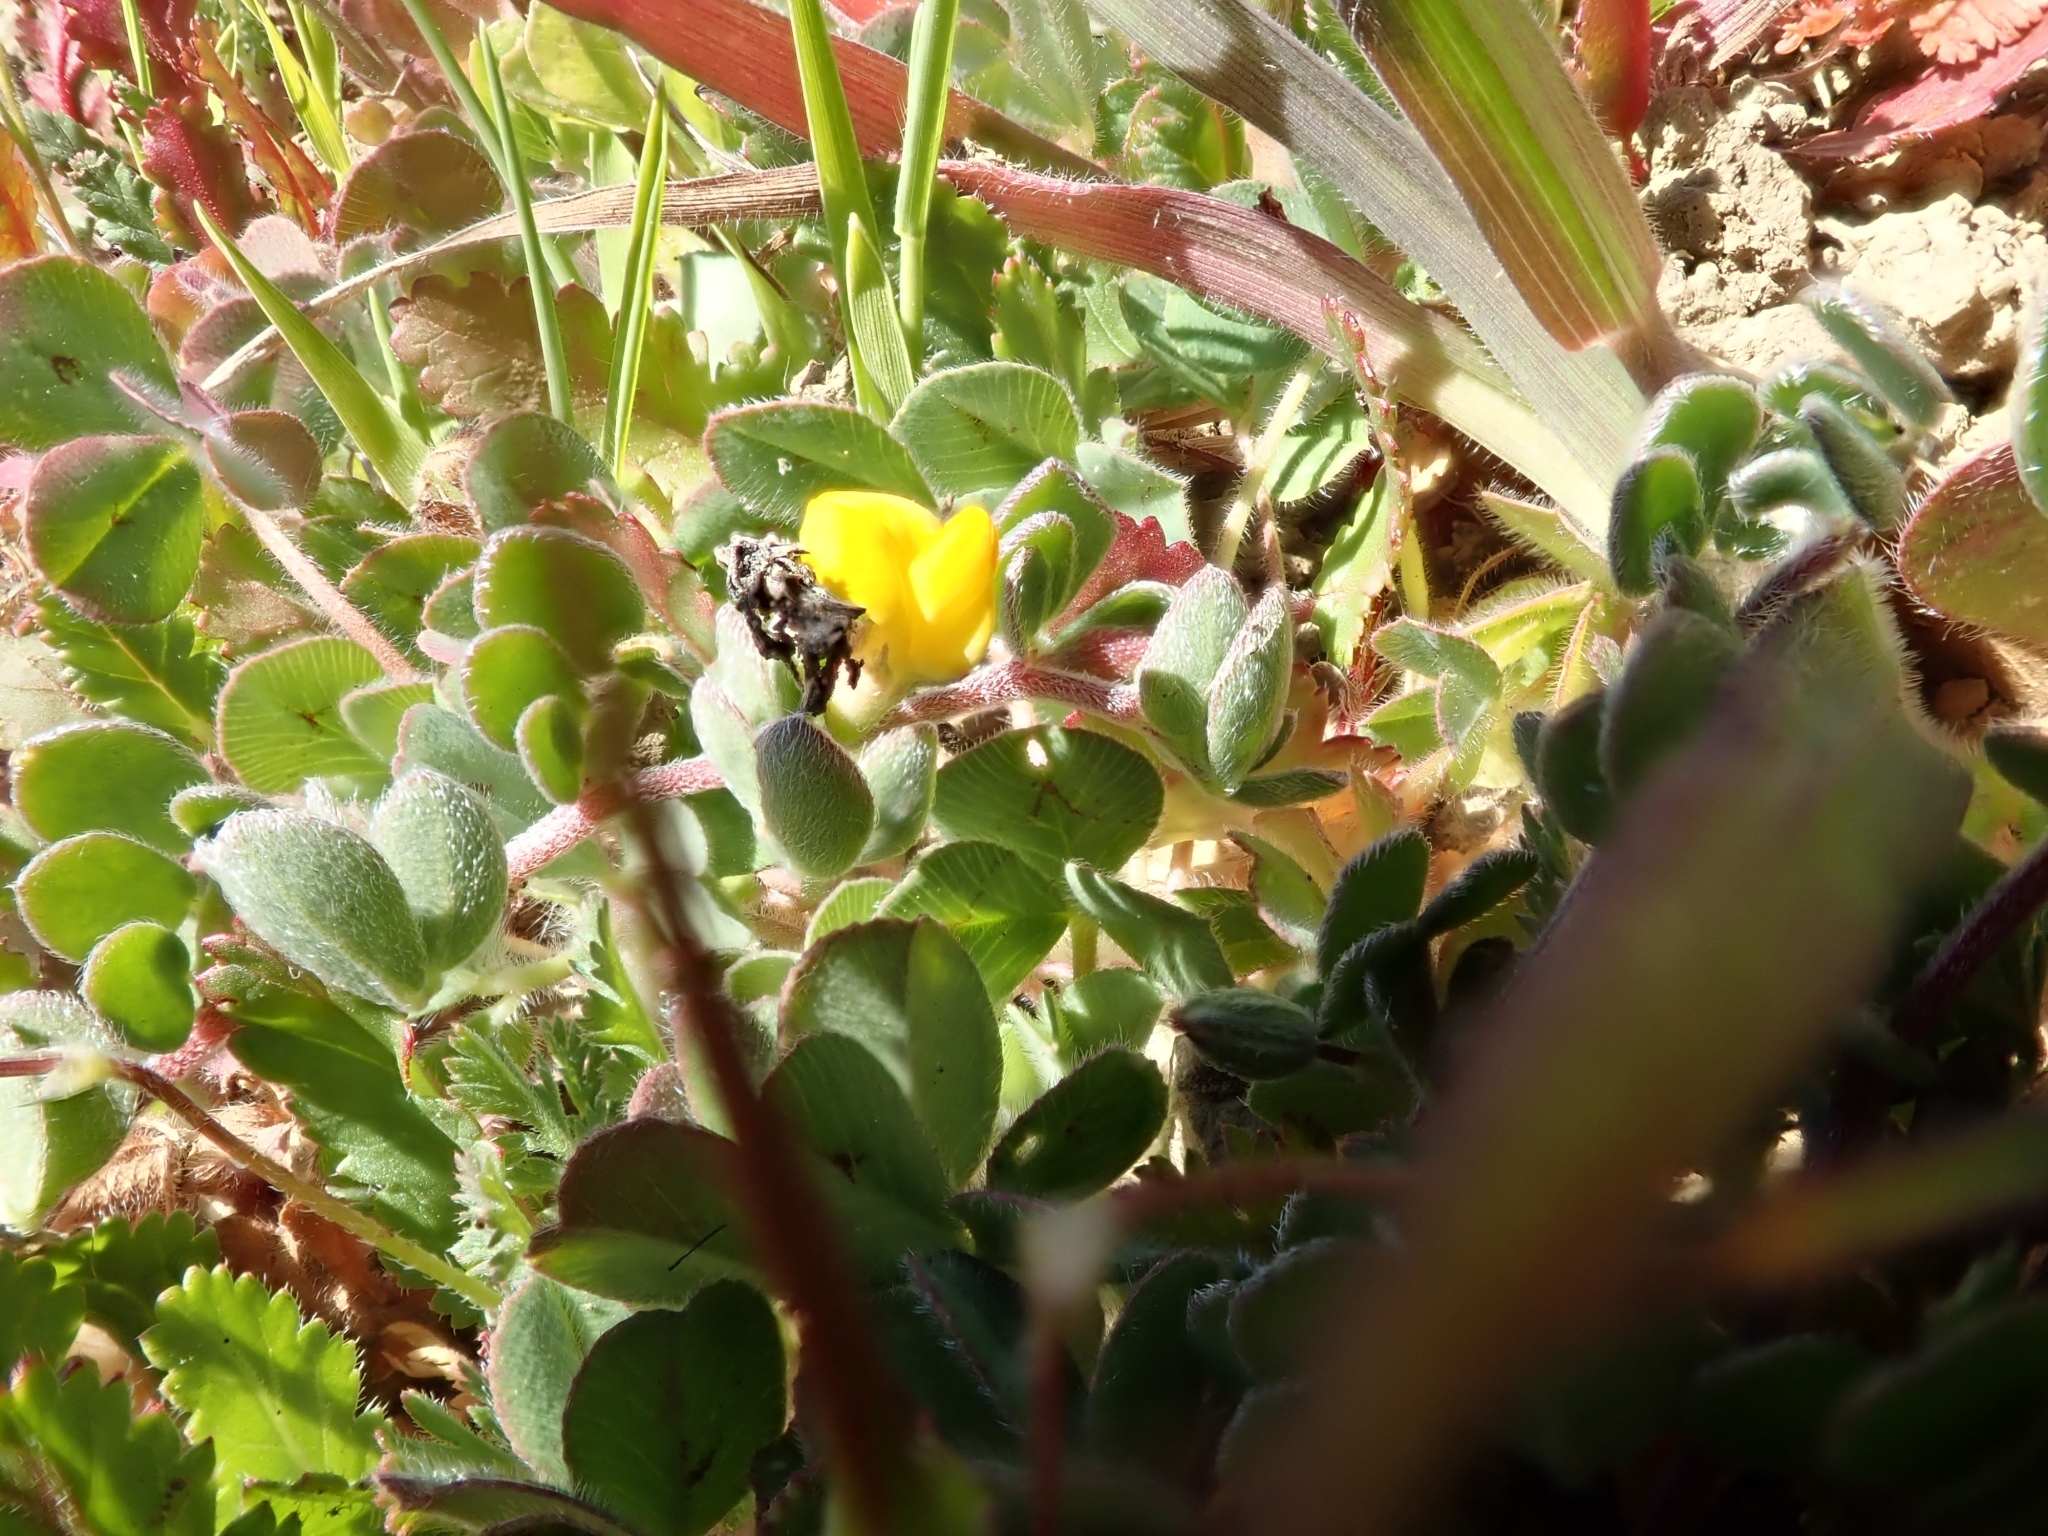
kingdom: Plantae
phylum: Tracheophyta
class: Magnoliopsida
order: Fabales
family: Fabaceae
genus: Acmispon
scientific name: Acmispon wrangelianus
